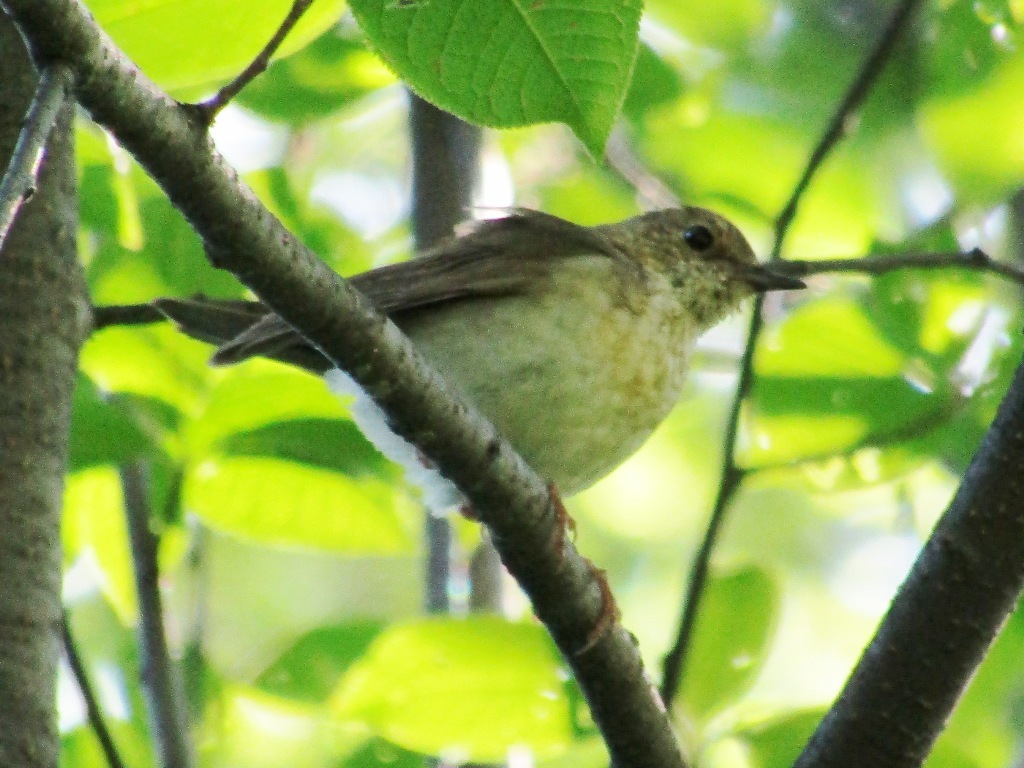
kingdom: Animalia
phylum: Chordata
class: Aves
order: Passeriformes
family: Muscicapidae
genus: Luscinia
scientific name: Luscinia cyane
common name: Siberian blue robin
